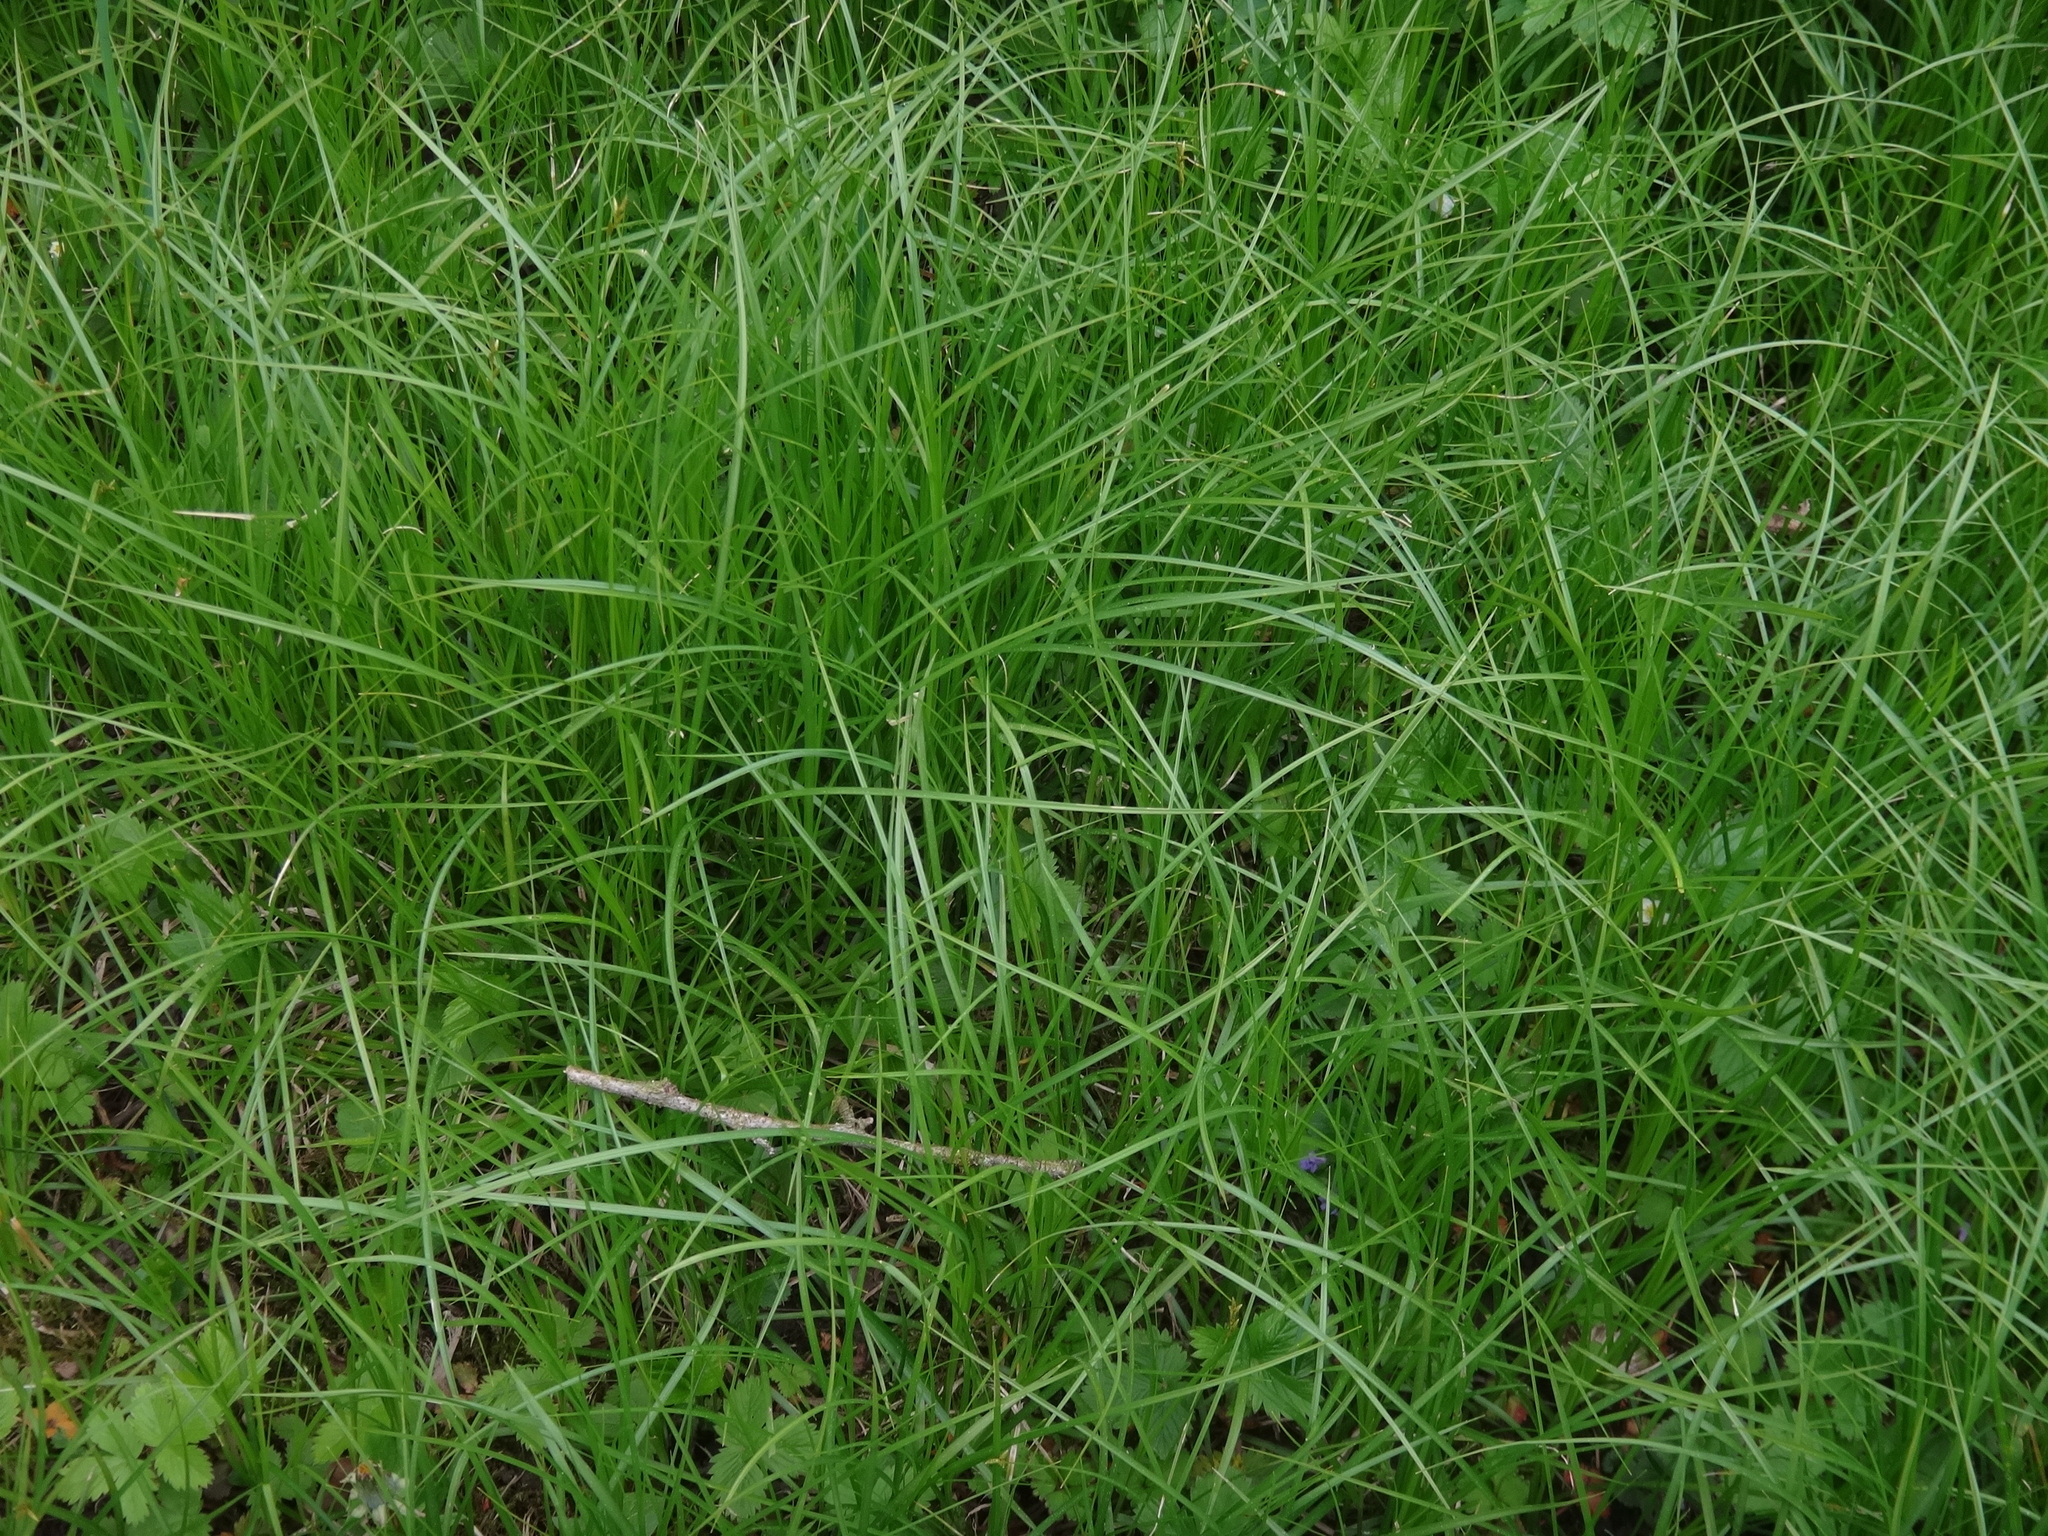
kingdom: Plantae
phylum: Tracheophyta
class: Liliopsida
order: Poales
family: Cyperaceae
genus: Carex
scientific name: Carex brizoides
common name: Quaking-grass sedge
